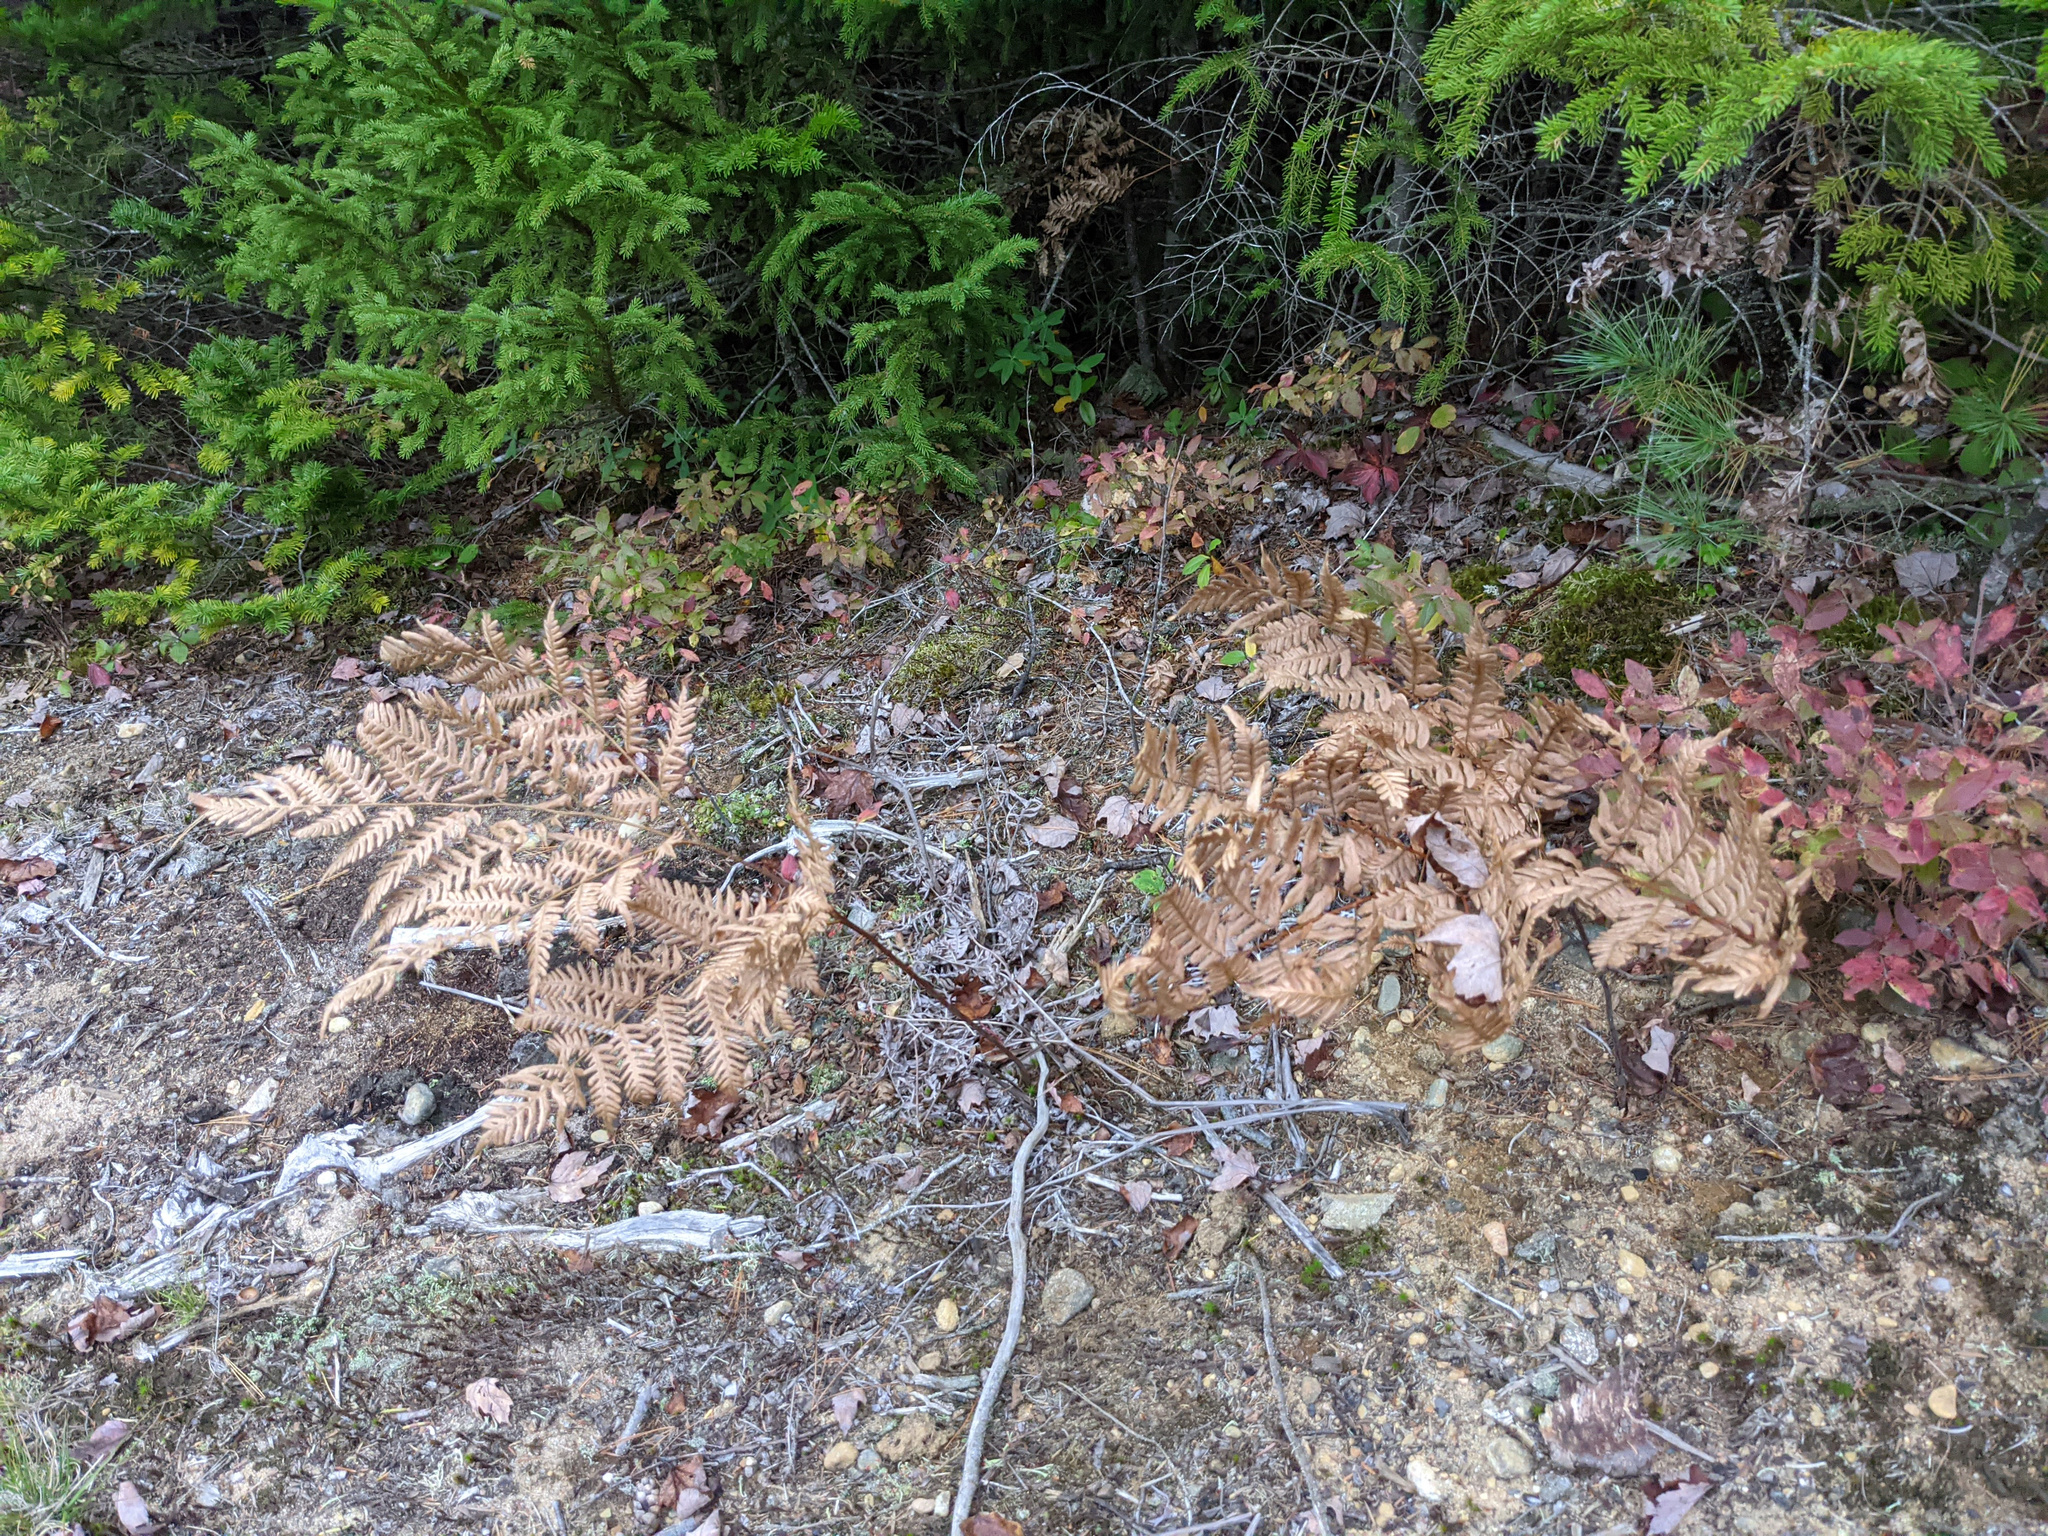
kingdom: Plantae
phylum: Tracheophyta
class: Polypodiopsida
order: Polypodiales
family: Dennstaedtiaceae
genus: Pteridium
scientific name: Pteridium aquilinum
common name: Bracken
